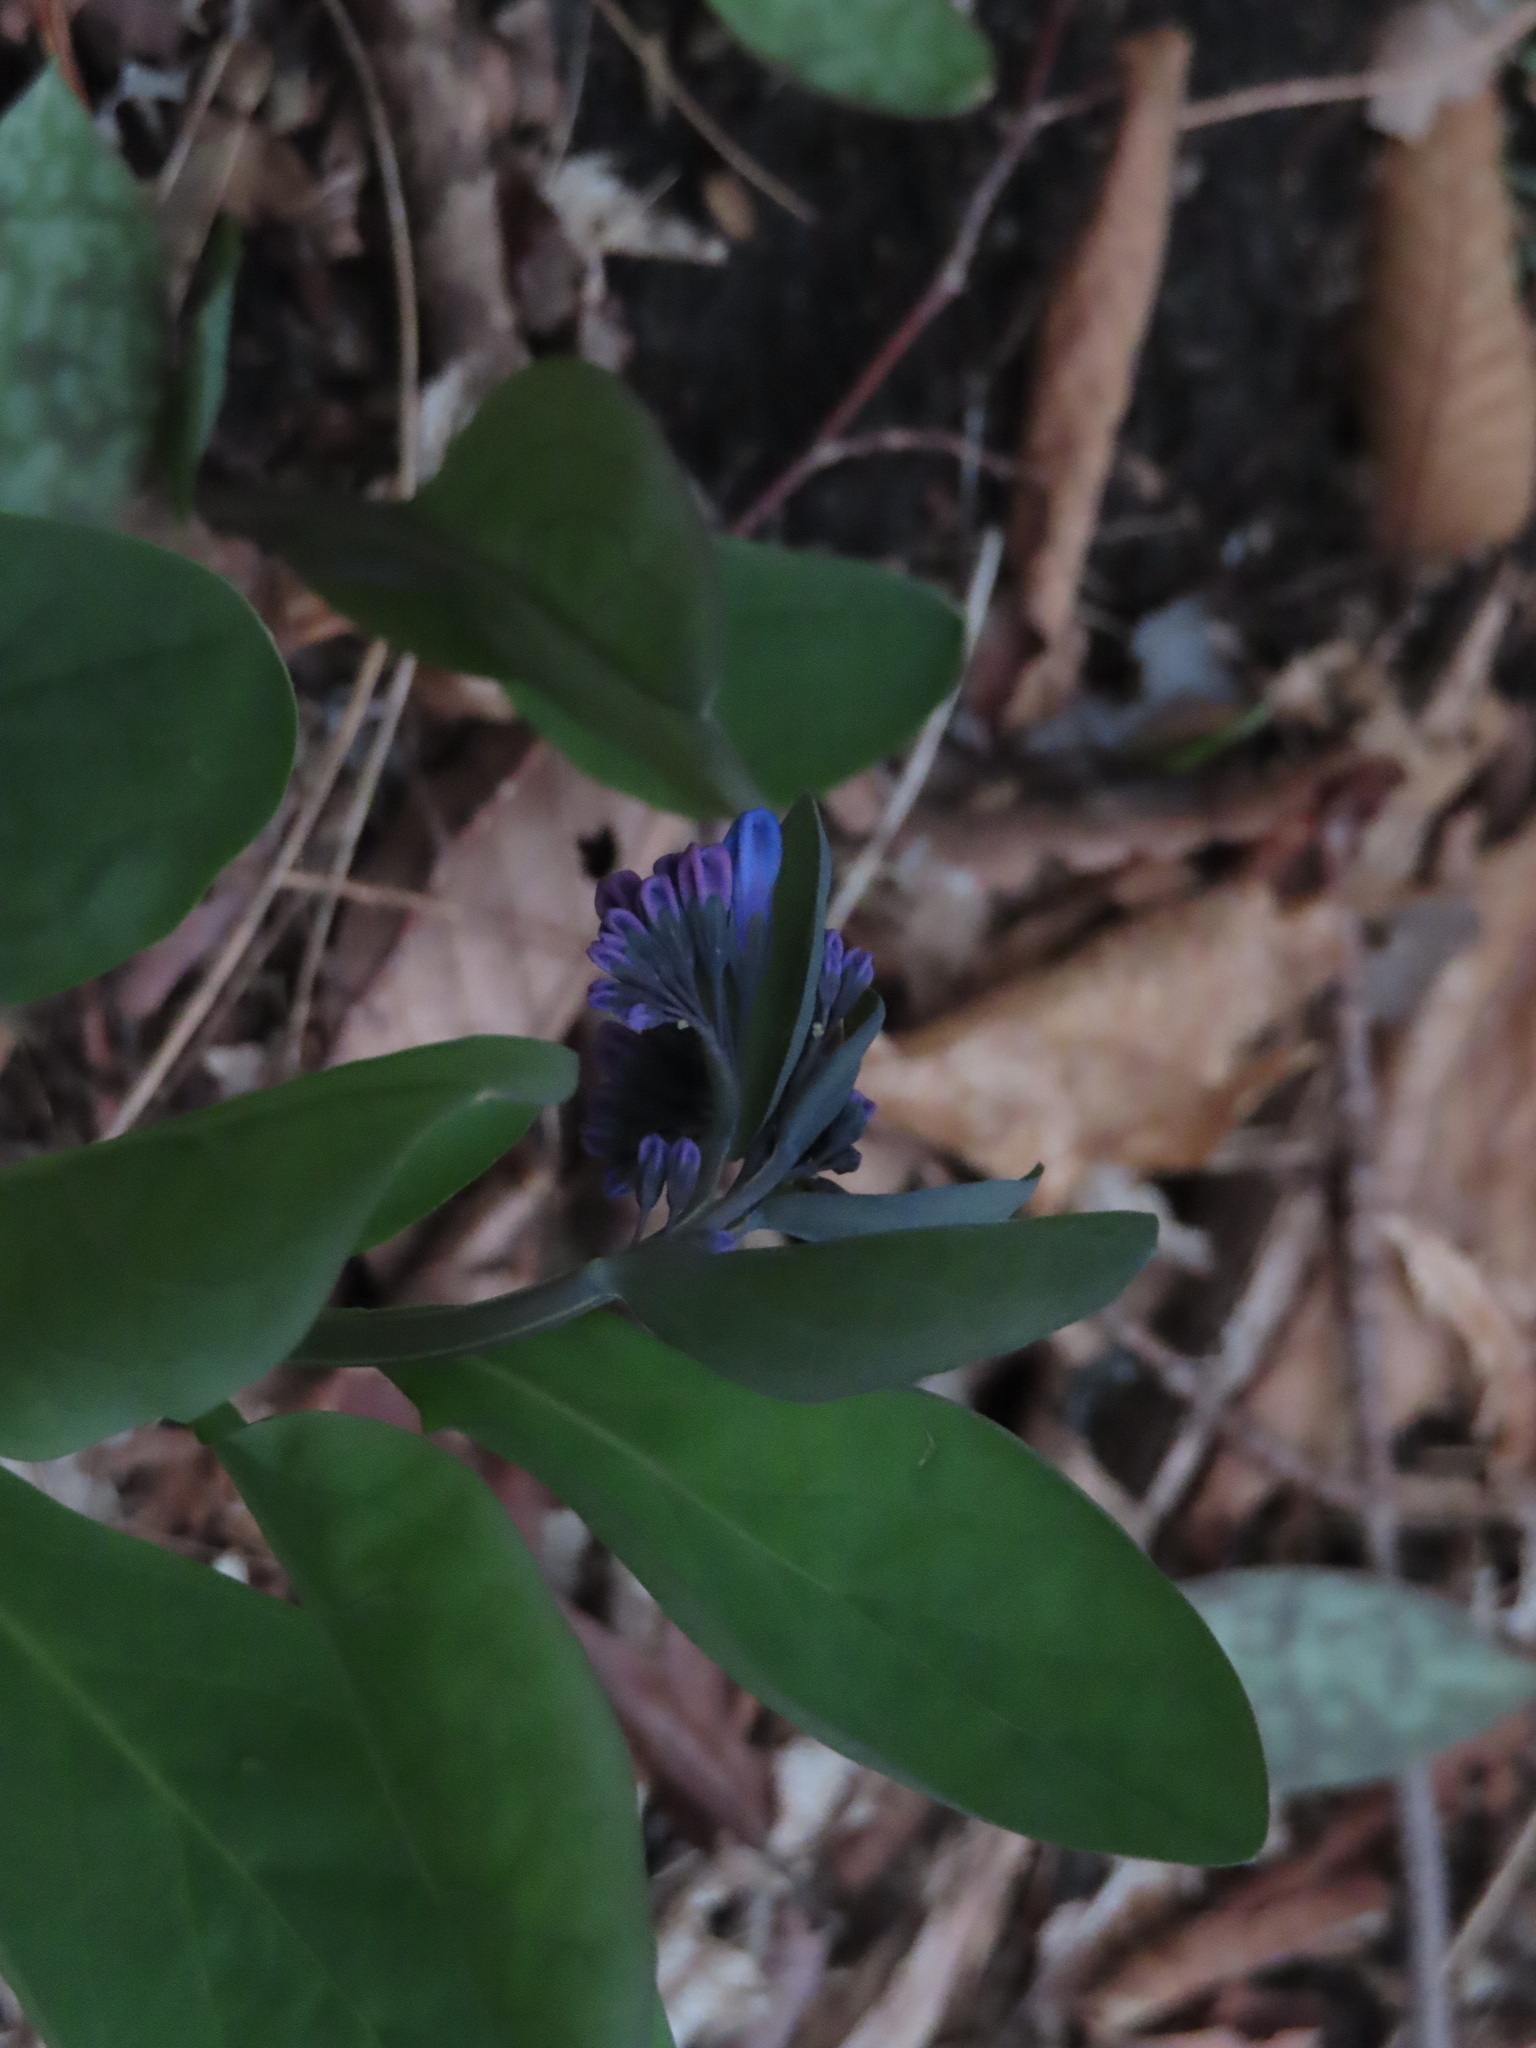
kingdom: Plantae
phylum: Tracheophyta
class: Magnoliopsida
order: Boraginales
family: Boraginaceae
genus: Mertensia
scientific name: Mertensia virginica
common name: Virginia bluebells
